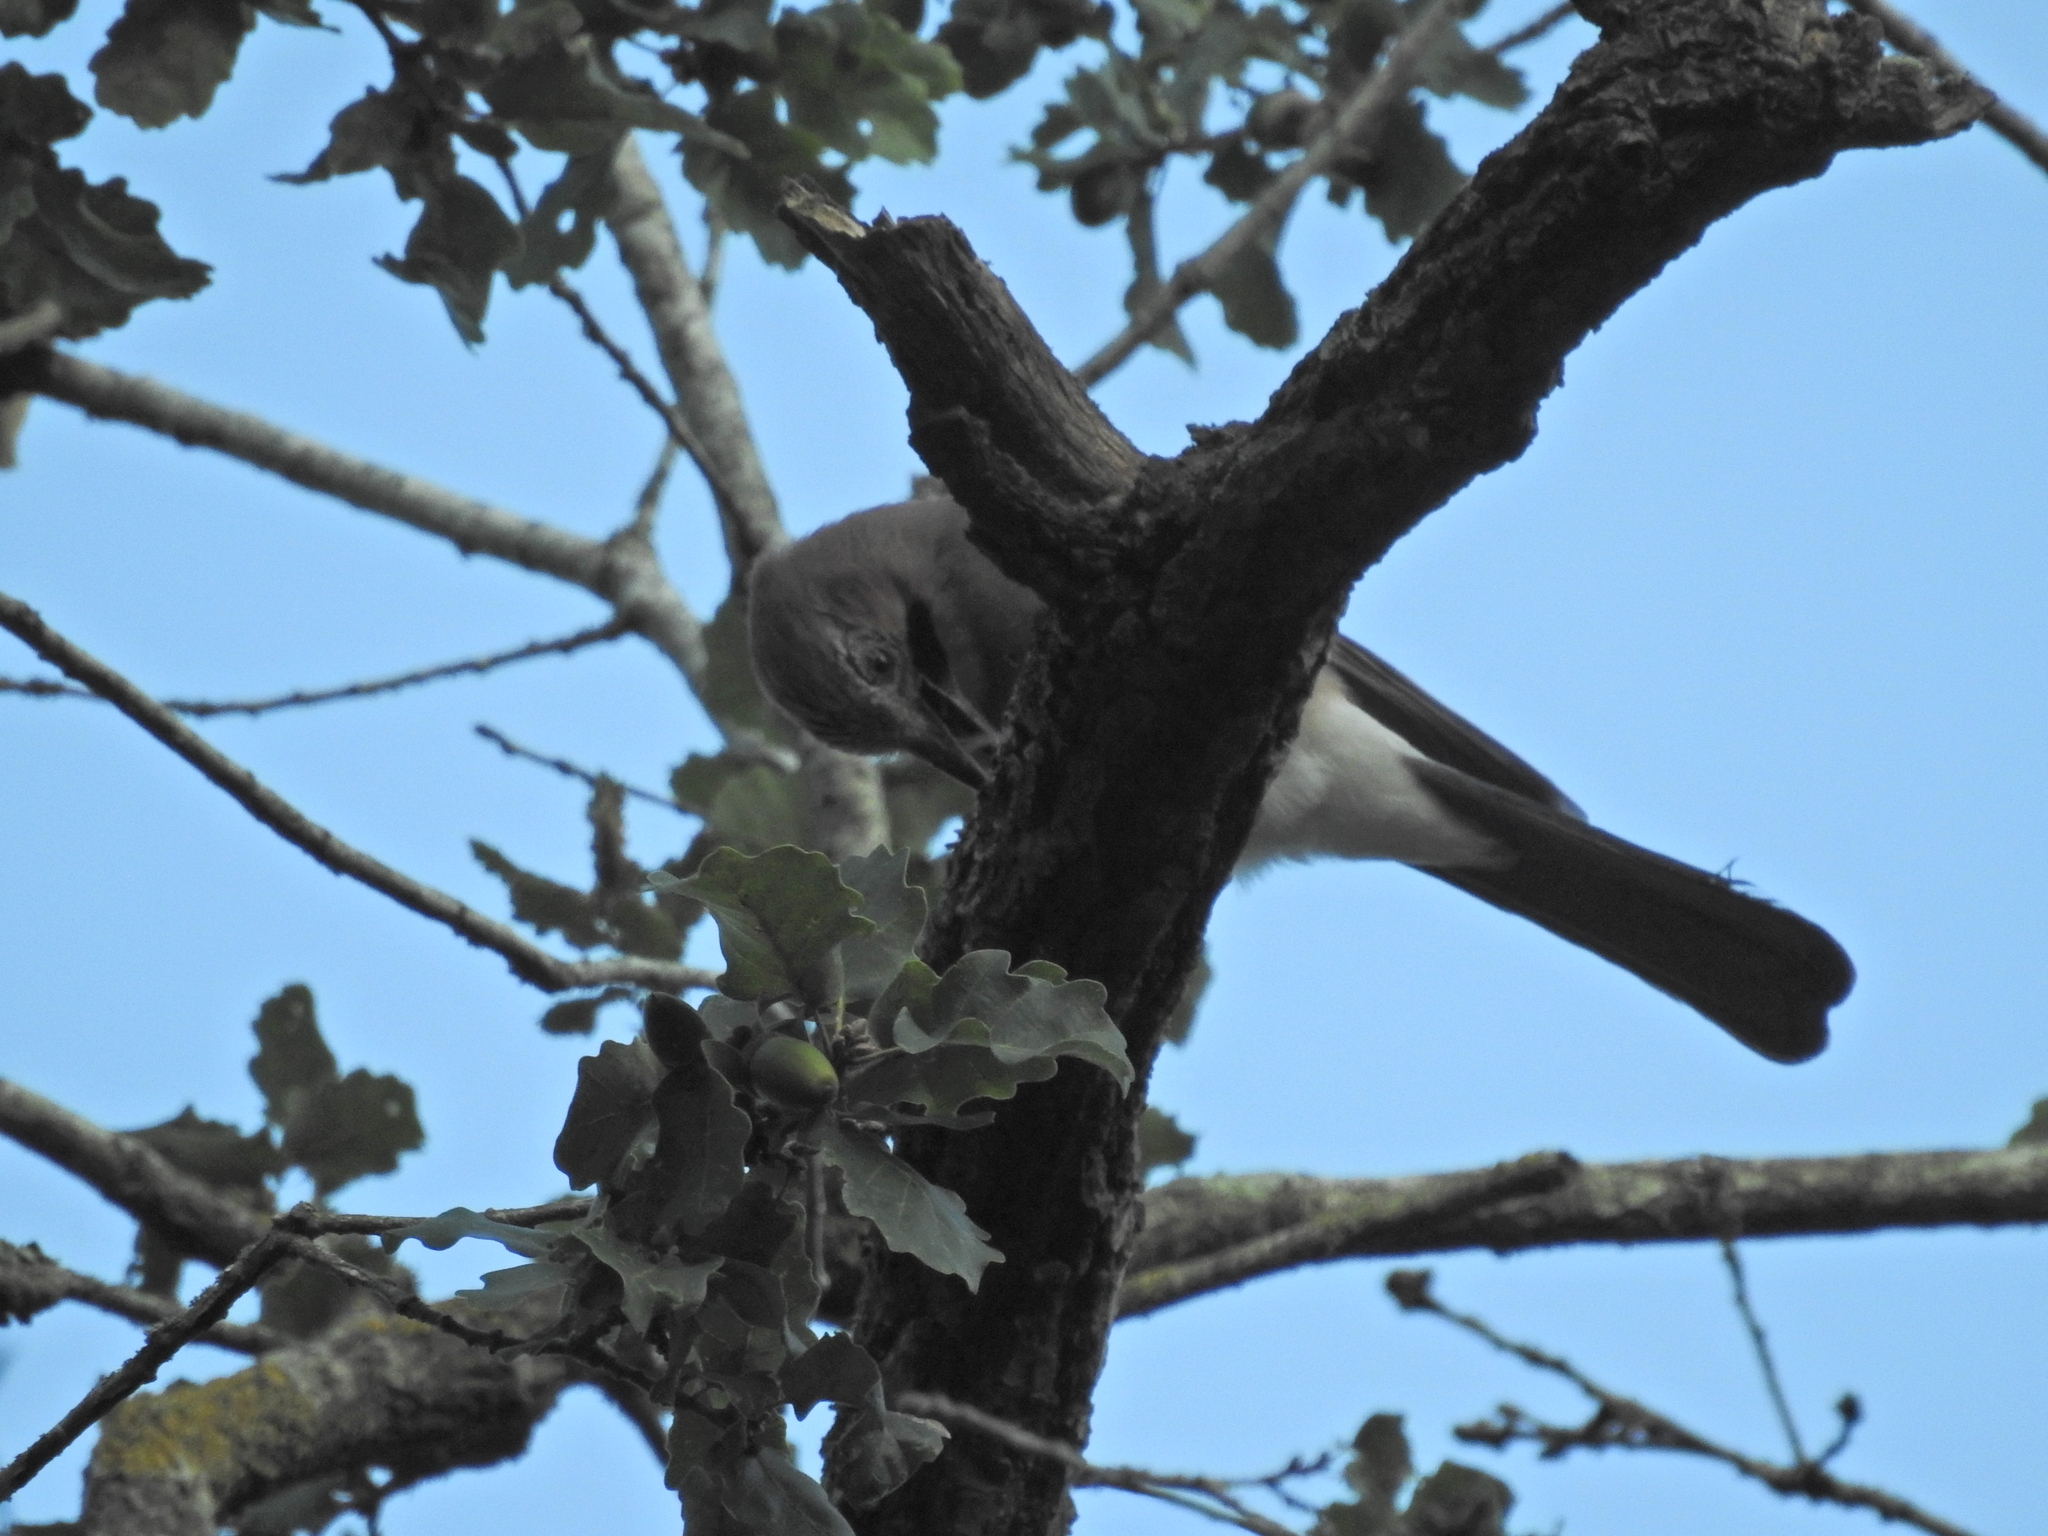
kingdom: Animalia
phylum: Chordata
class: Aves
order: Passeriformes
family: Corvidae
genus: Garrulus
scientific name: Garrulus glandarius
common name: Eurasian jay
